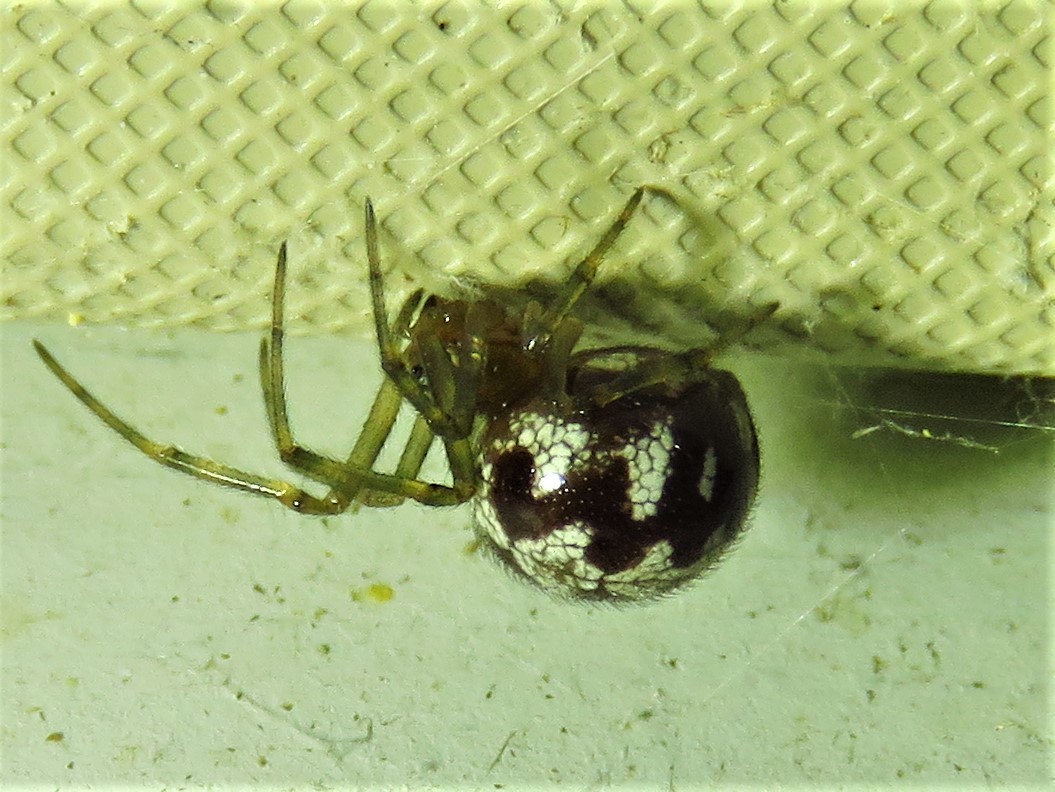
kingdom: Animalia
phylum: Arthropoda
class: Arachnida
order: Araneae
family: Theridiidae
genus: Steatoda
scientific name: Steatoda triangulosa
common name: Triangulate bud spider
